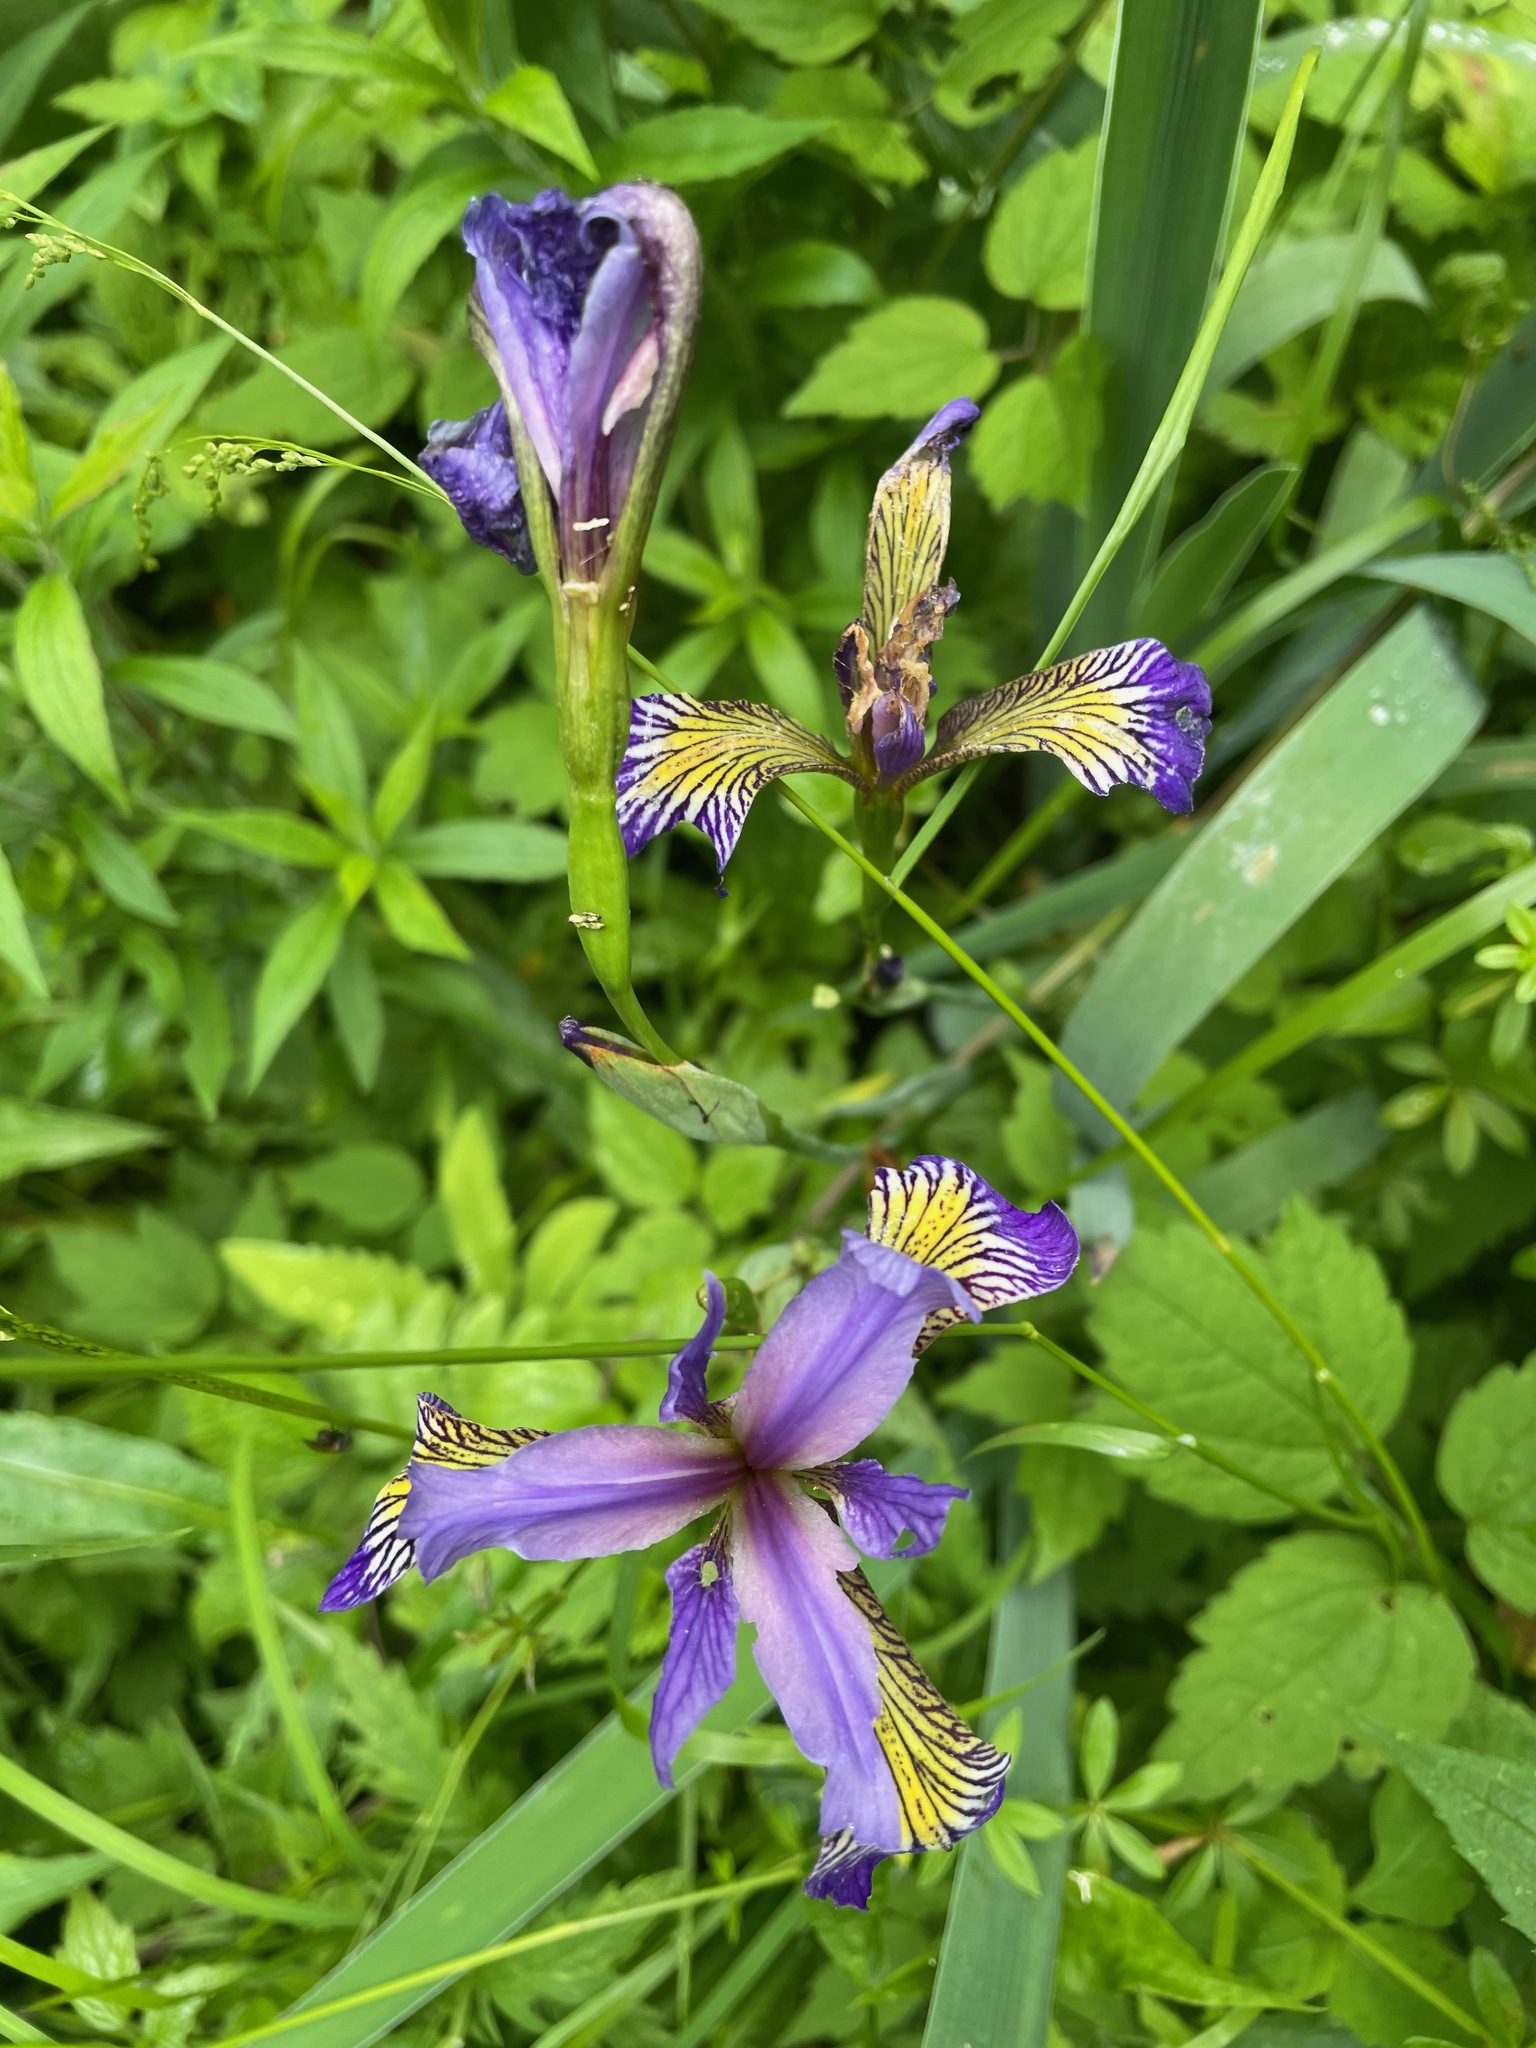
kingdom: Plantae
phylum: Tracheophyta
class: Liliopsida
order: Asparagales
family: Iridaceae
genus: Iris
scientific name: Iris versicolor
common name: Purple iris
